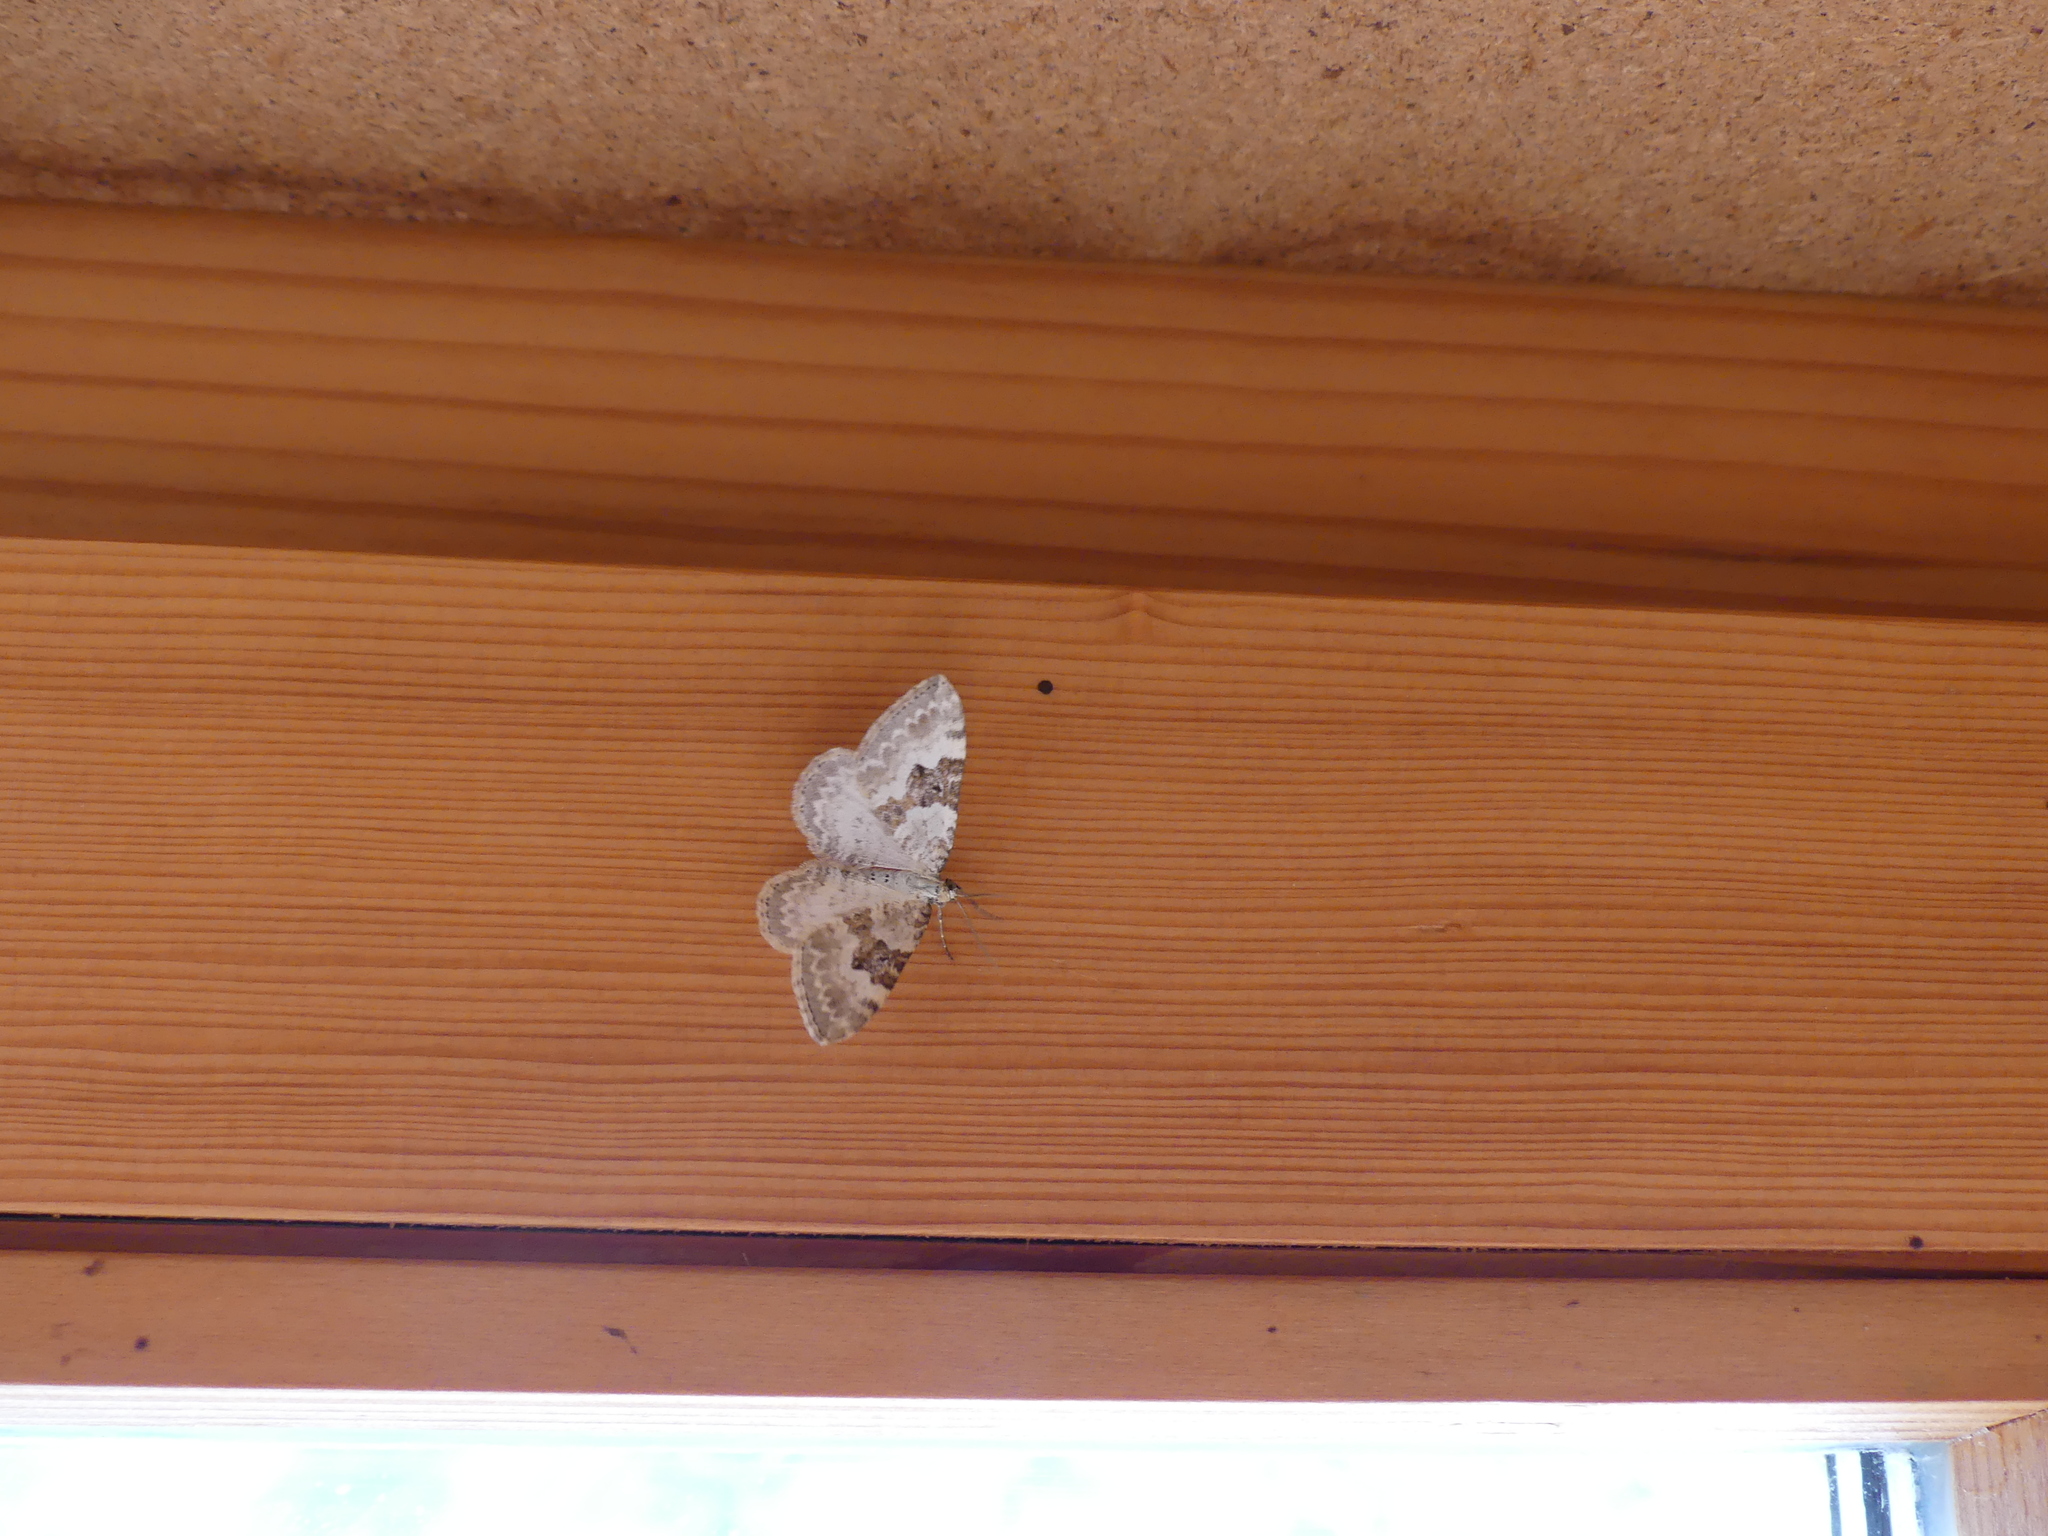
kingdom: Animalia
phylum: Arthropoda
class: Insecta
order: Lepidoptera
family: Geometridae
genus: Xanthorhoe
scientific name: Xanthorhoe montanata
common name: Silver-ground carpet
